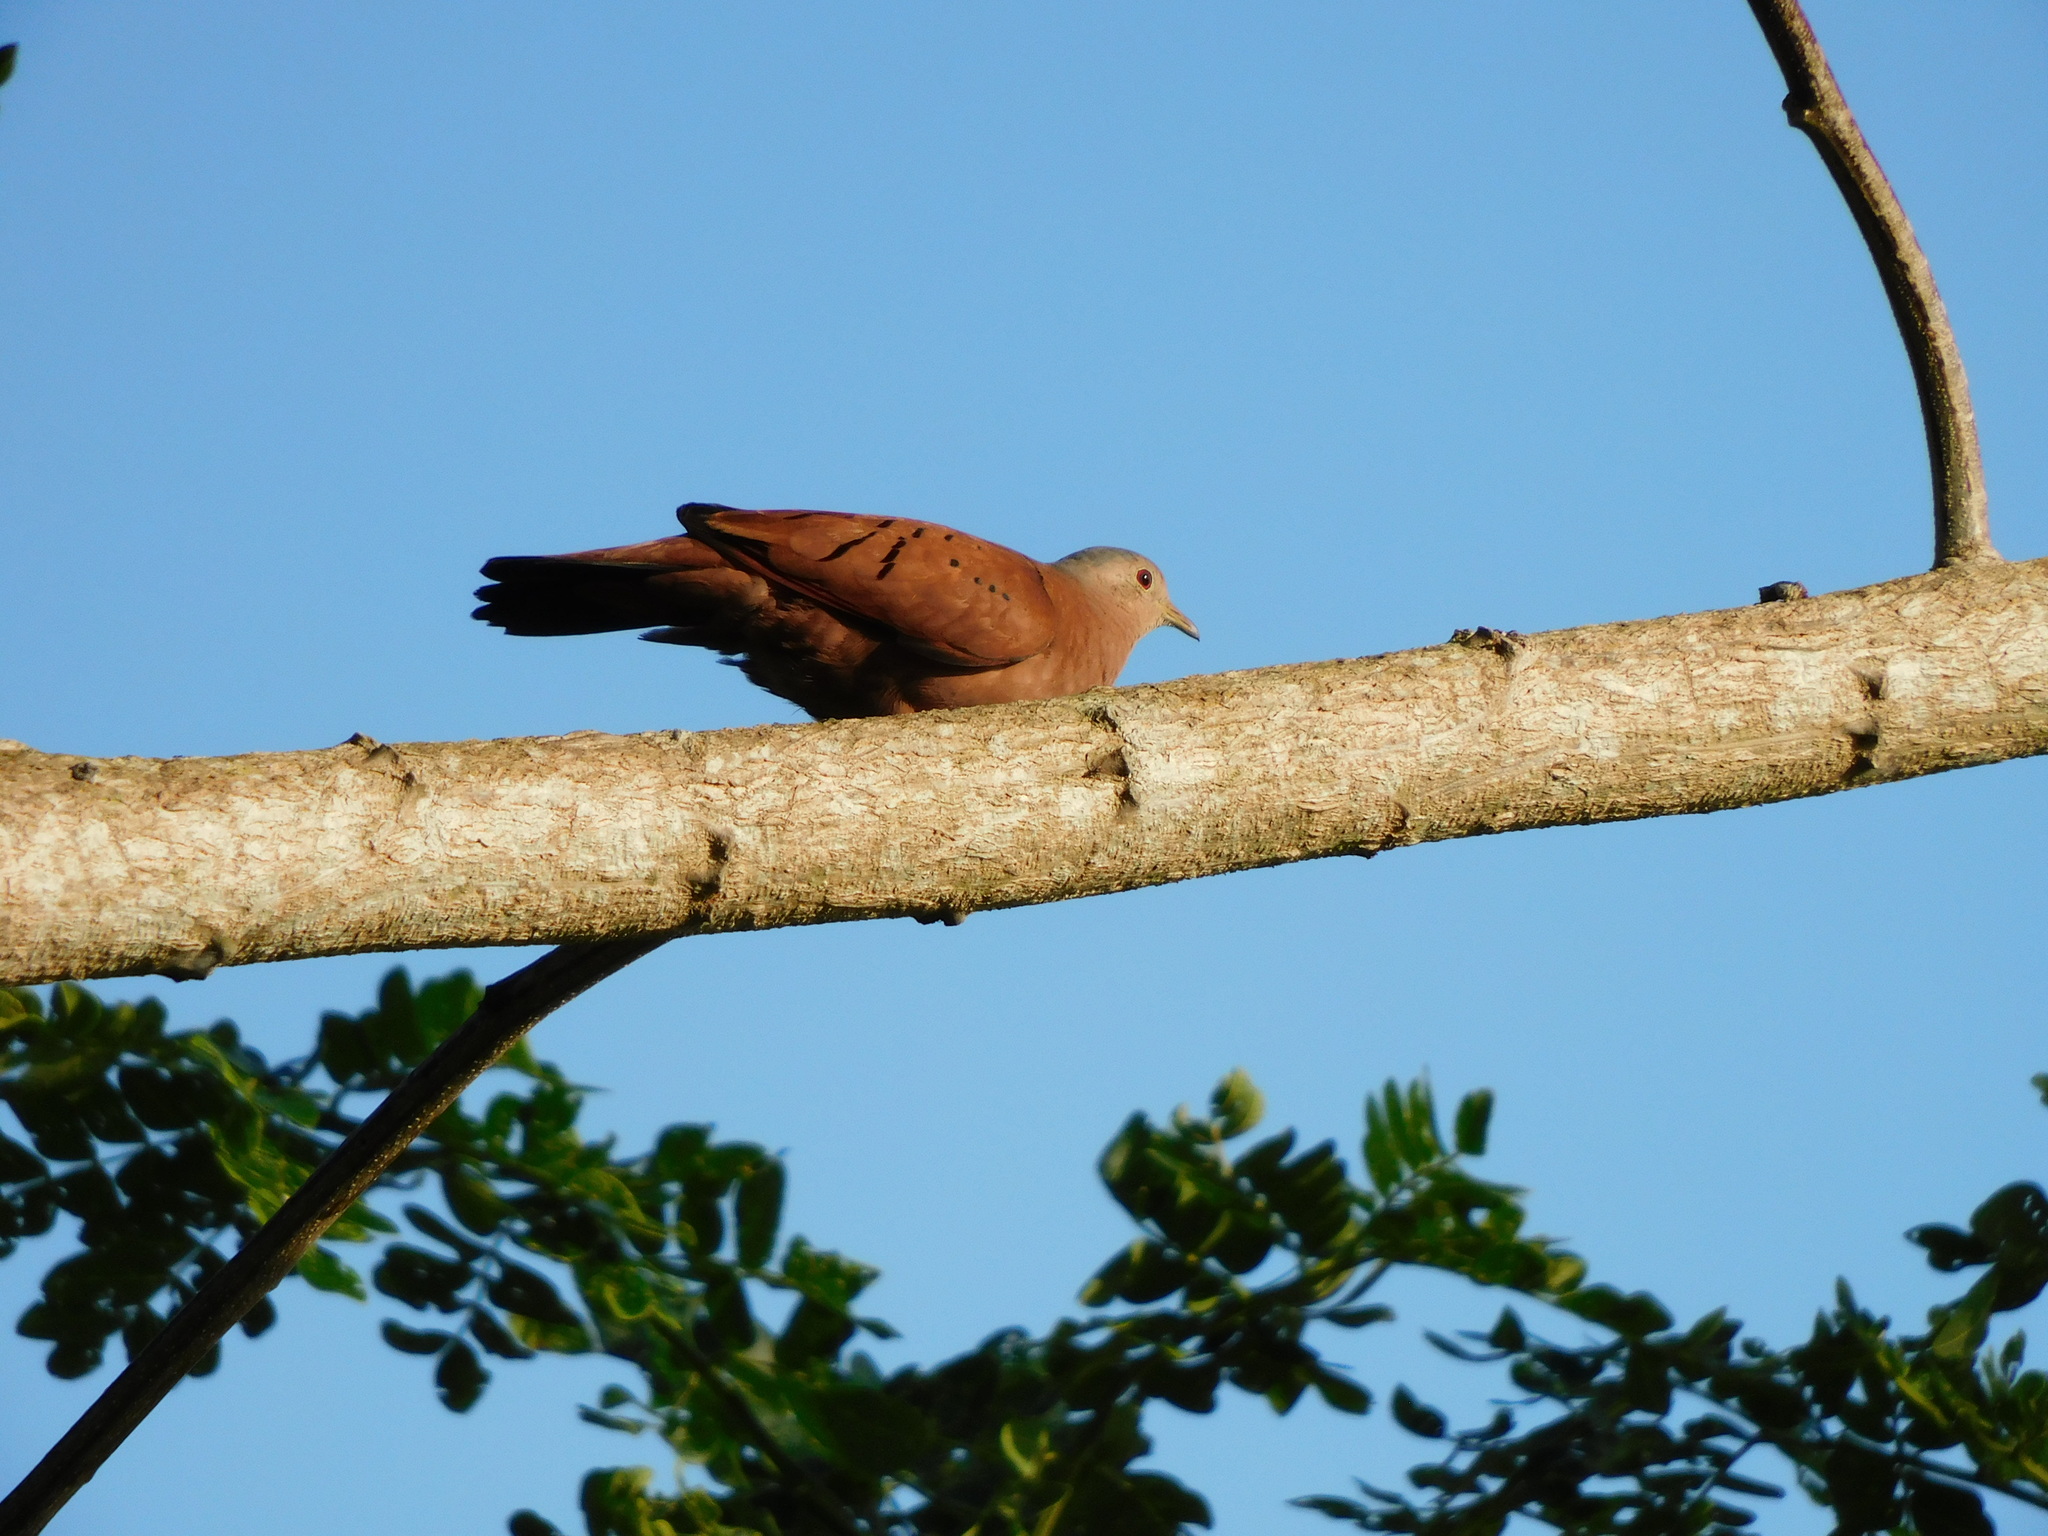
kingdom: Animalia
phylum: Chordata
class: Aves
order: Columbiformes
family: Columbidae
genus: Columbina
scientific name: Columbina talpacoti
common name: Ruddy ground dove
